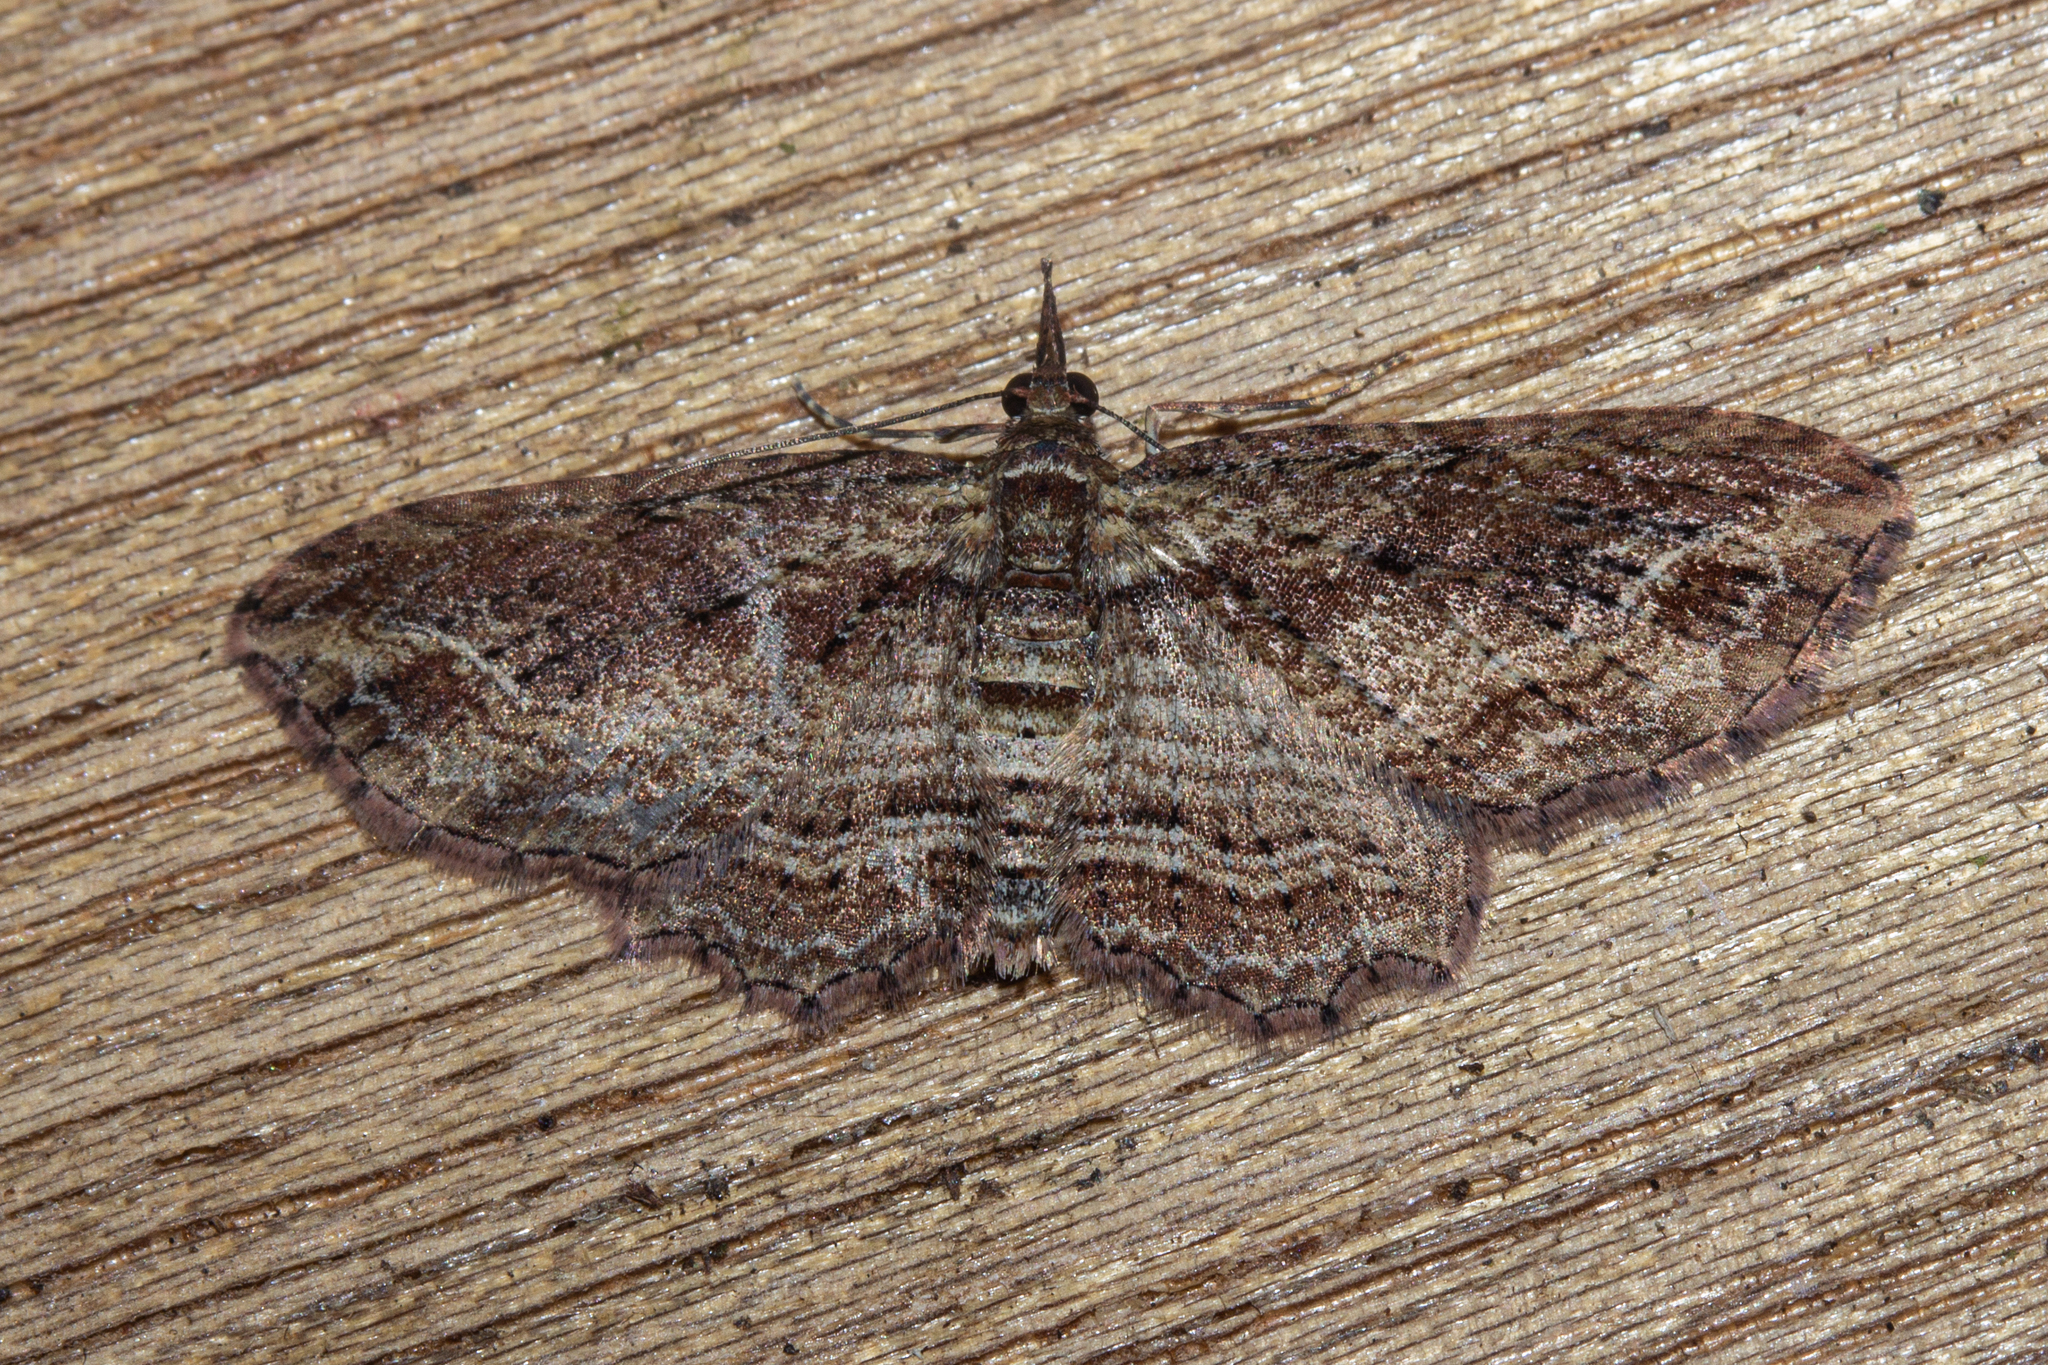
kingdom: Animalia
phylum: Arthropoda
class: Insecta
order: Lepidoptera
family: Geometridae
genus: Chloroclystis
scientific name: Chloroclystis filata
